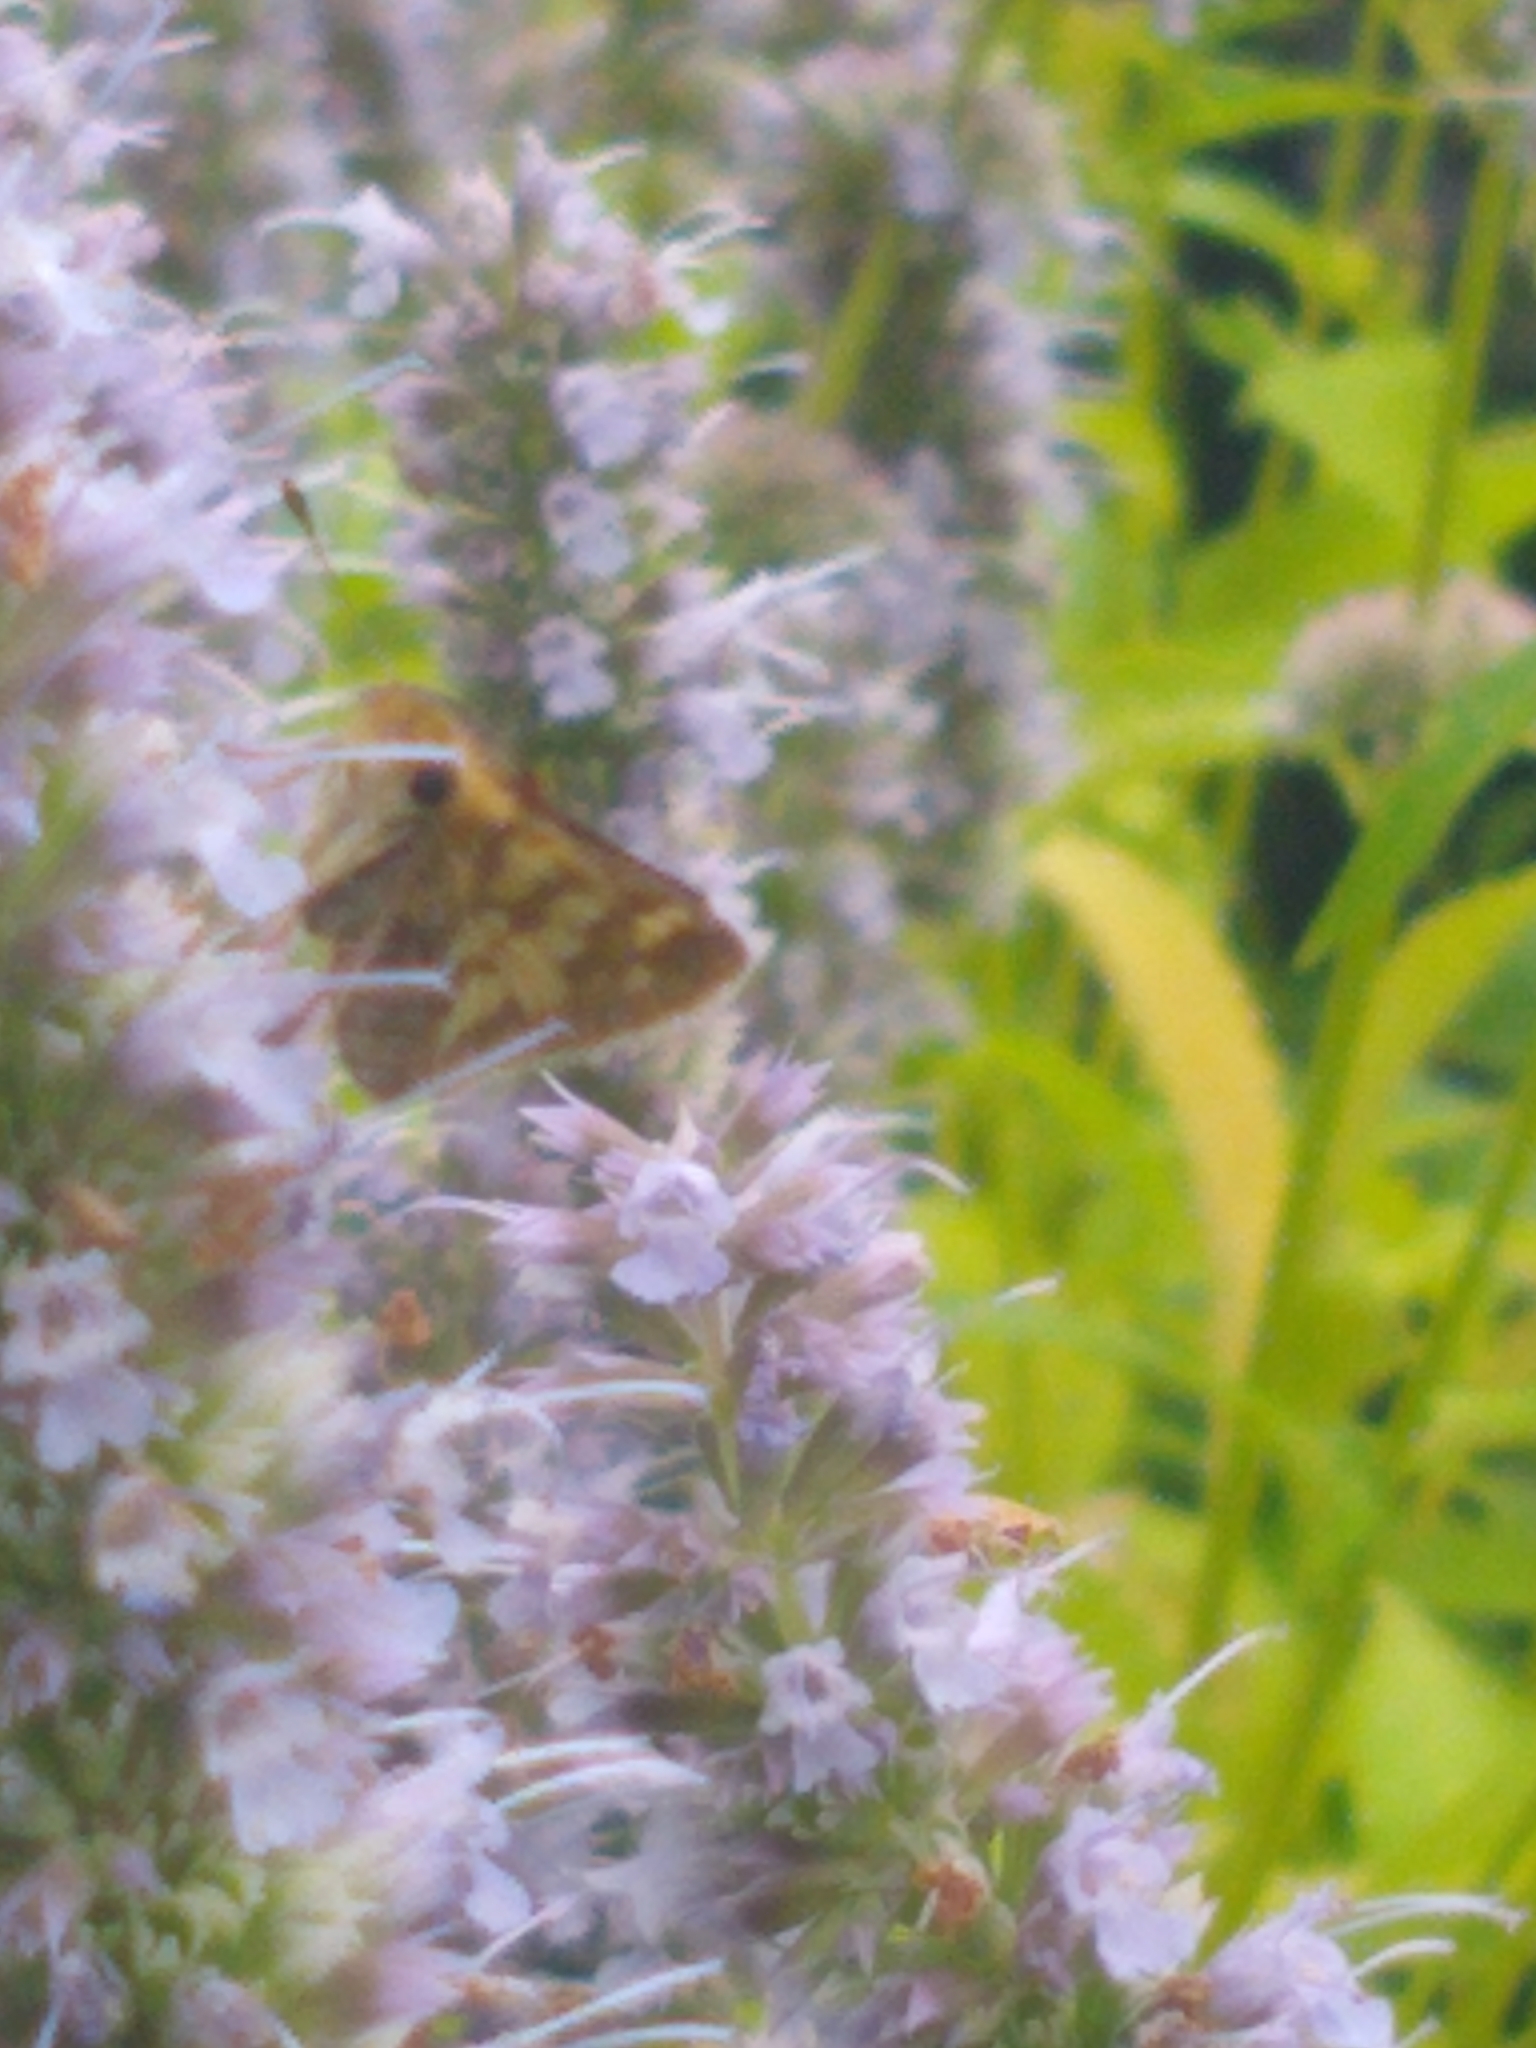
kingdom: Animalia
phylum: Arthropoda
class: Insecta
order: Lepidoptera
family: Hesperiidae
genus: Polites
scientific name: Polites coras
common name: Peck's skipper
